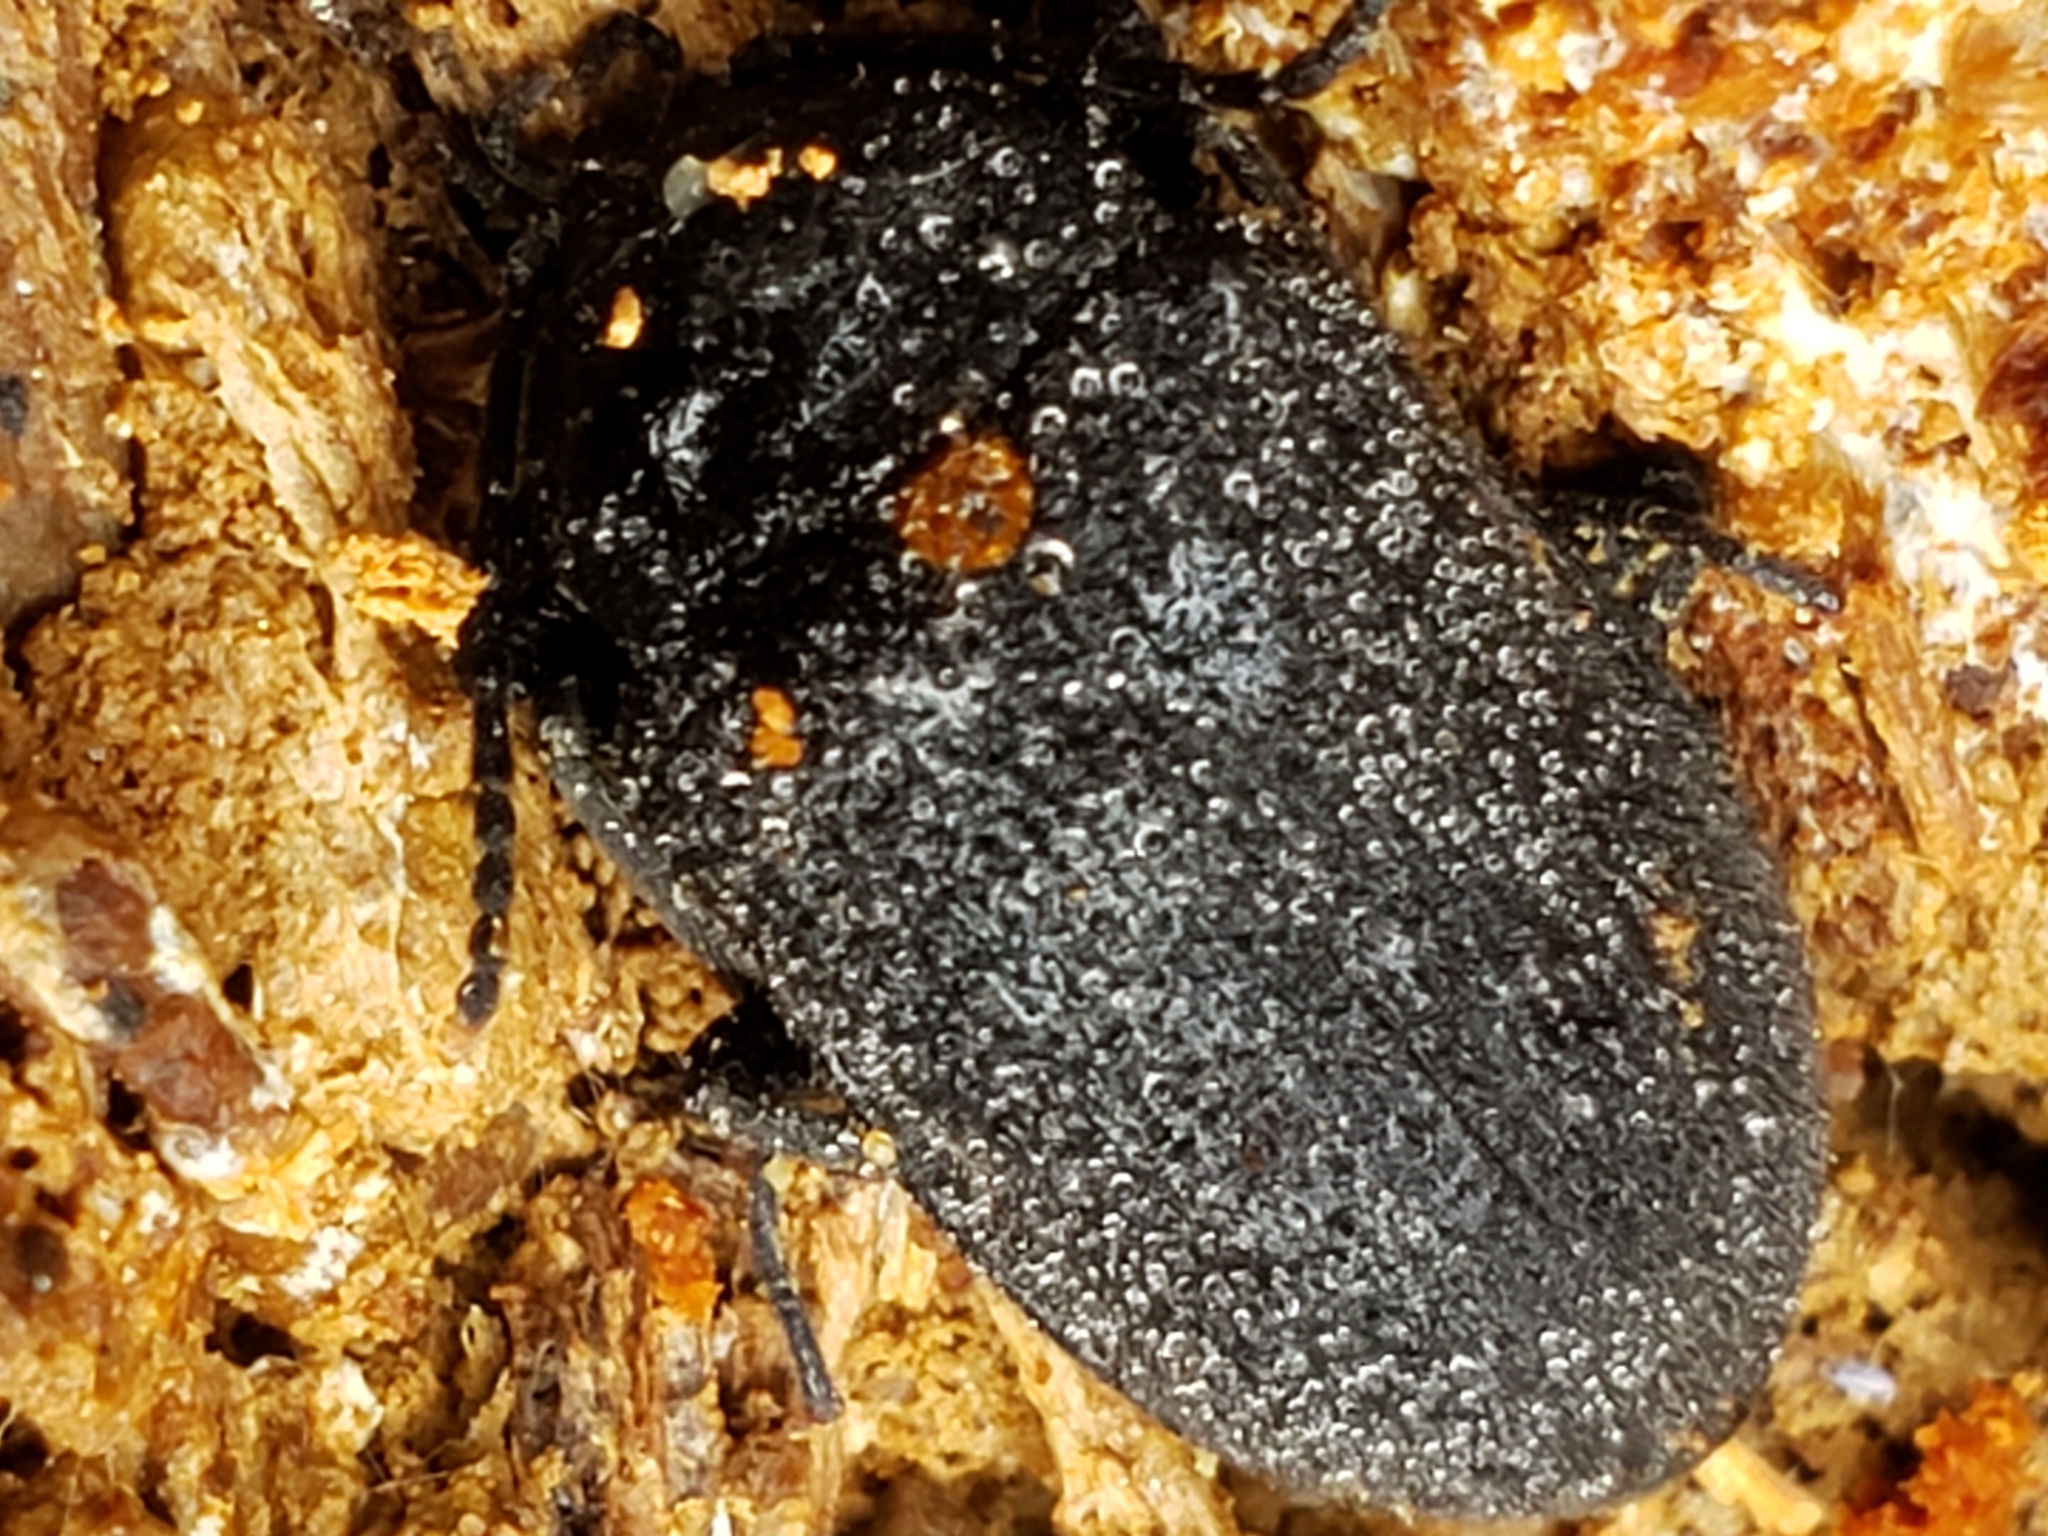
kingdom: Animalia
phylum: Arthropoda
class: Insecta
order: Coleoptera
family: Tetratomidae
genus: Penthe
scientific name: Penthe obliquata
